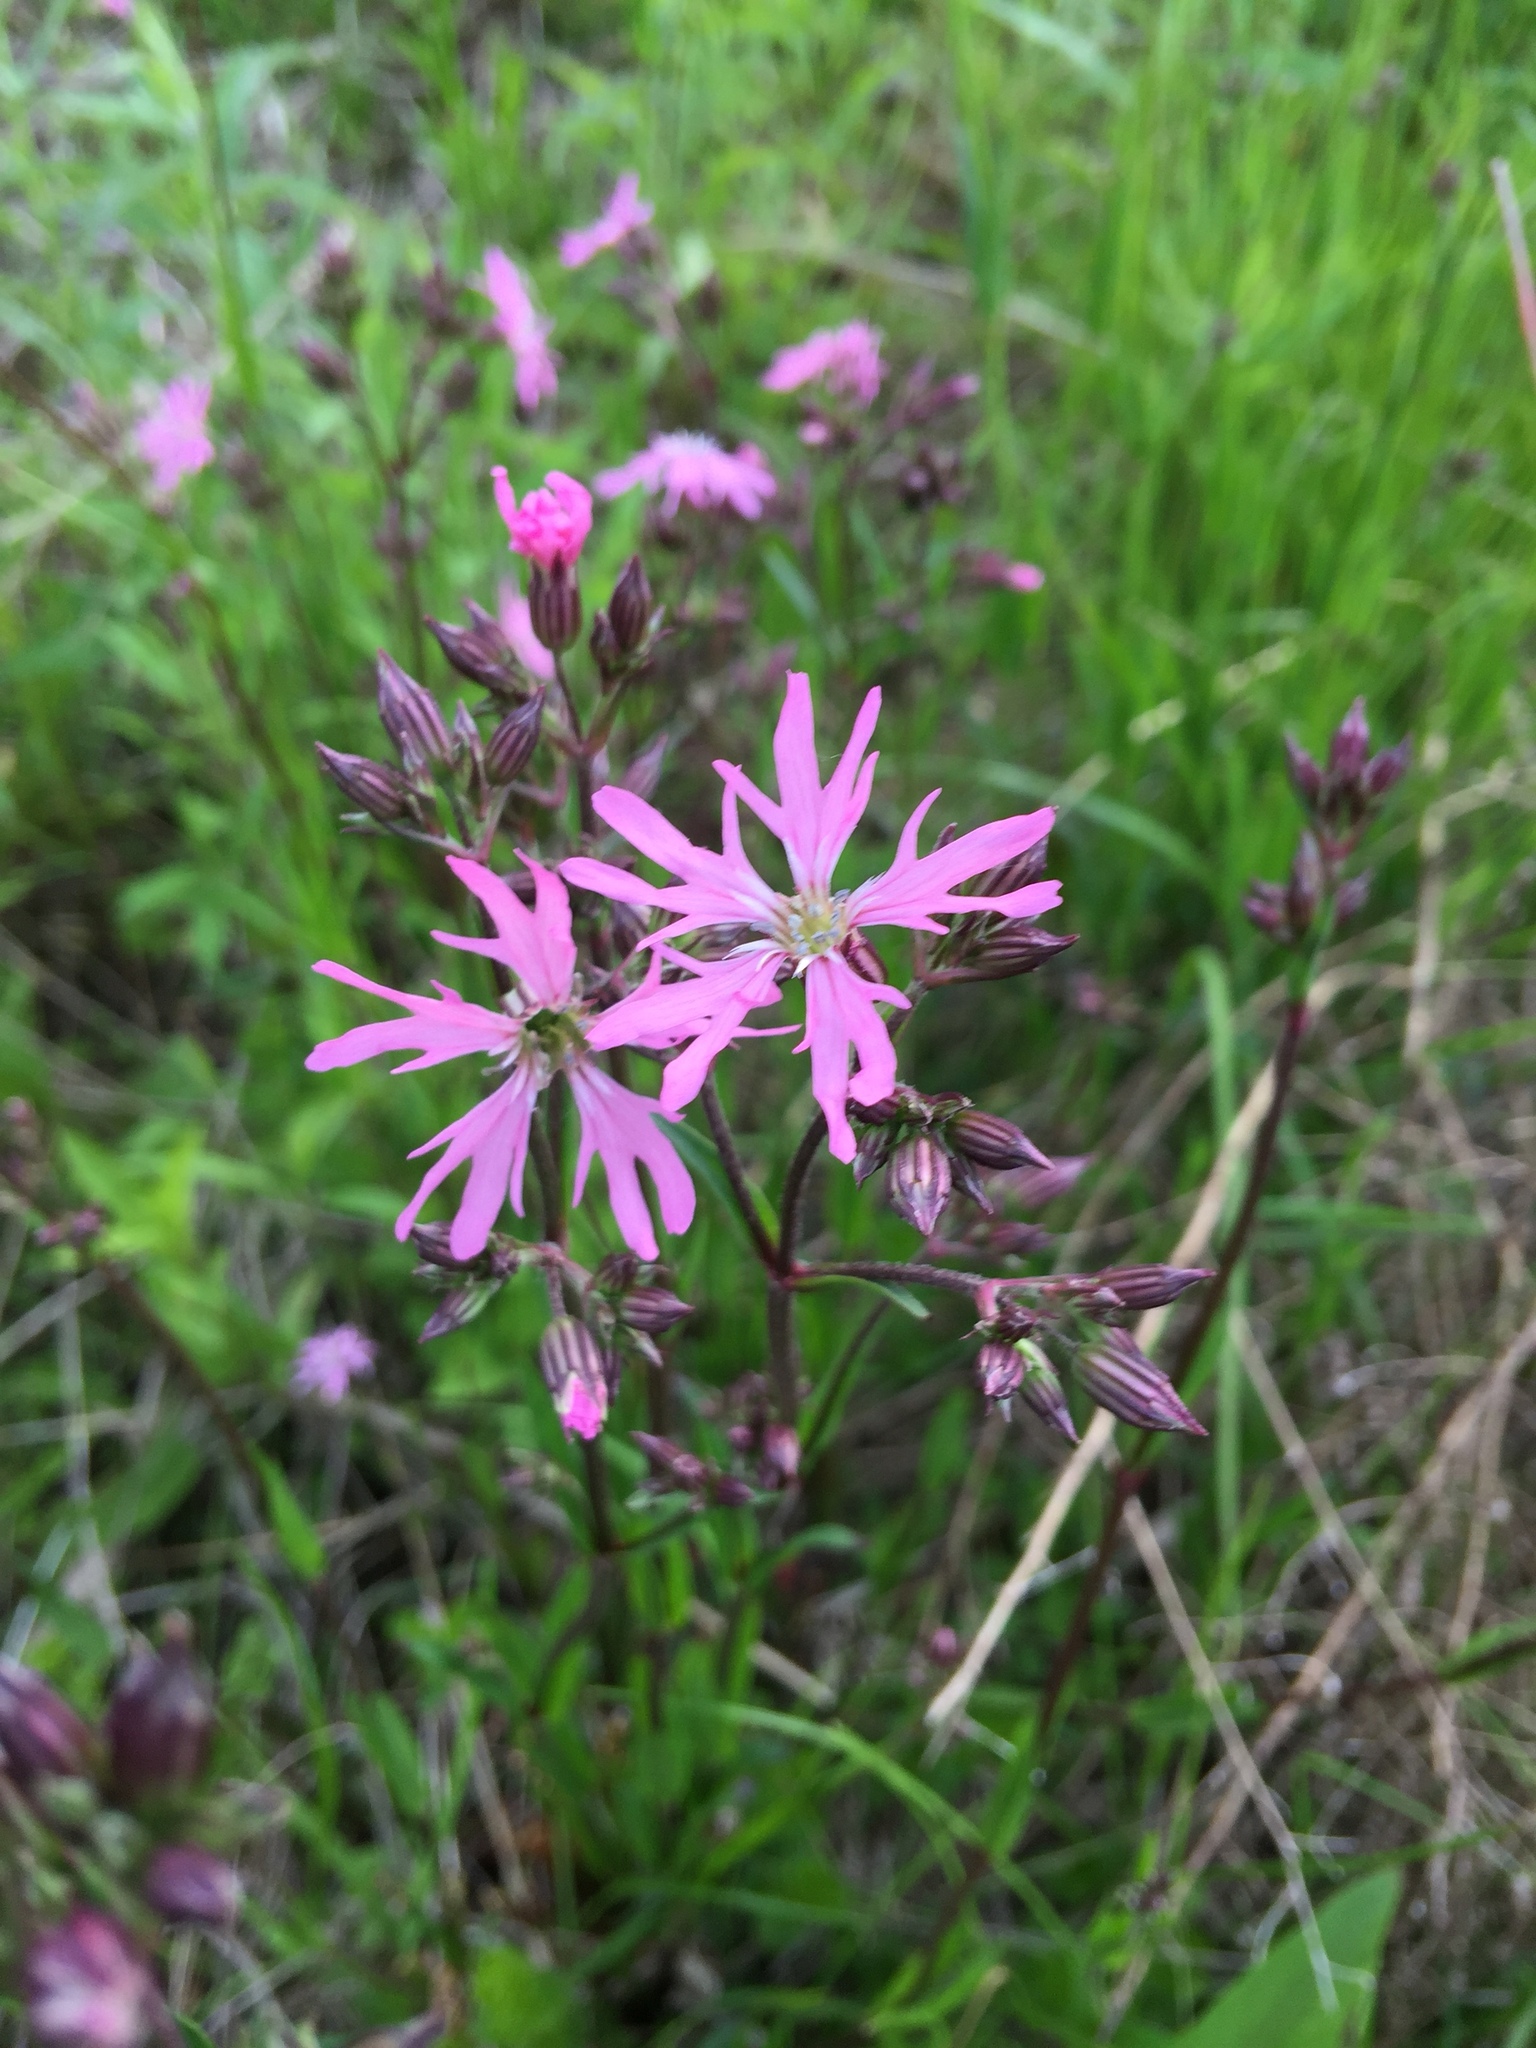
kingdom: Plantae
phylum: Tracheophyta
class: Magnoliopsida
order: Caryophyllales
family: Caryophyllaceae
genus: Silene
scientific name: Silene flos-cuculi
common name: Ragged-robin
